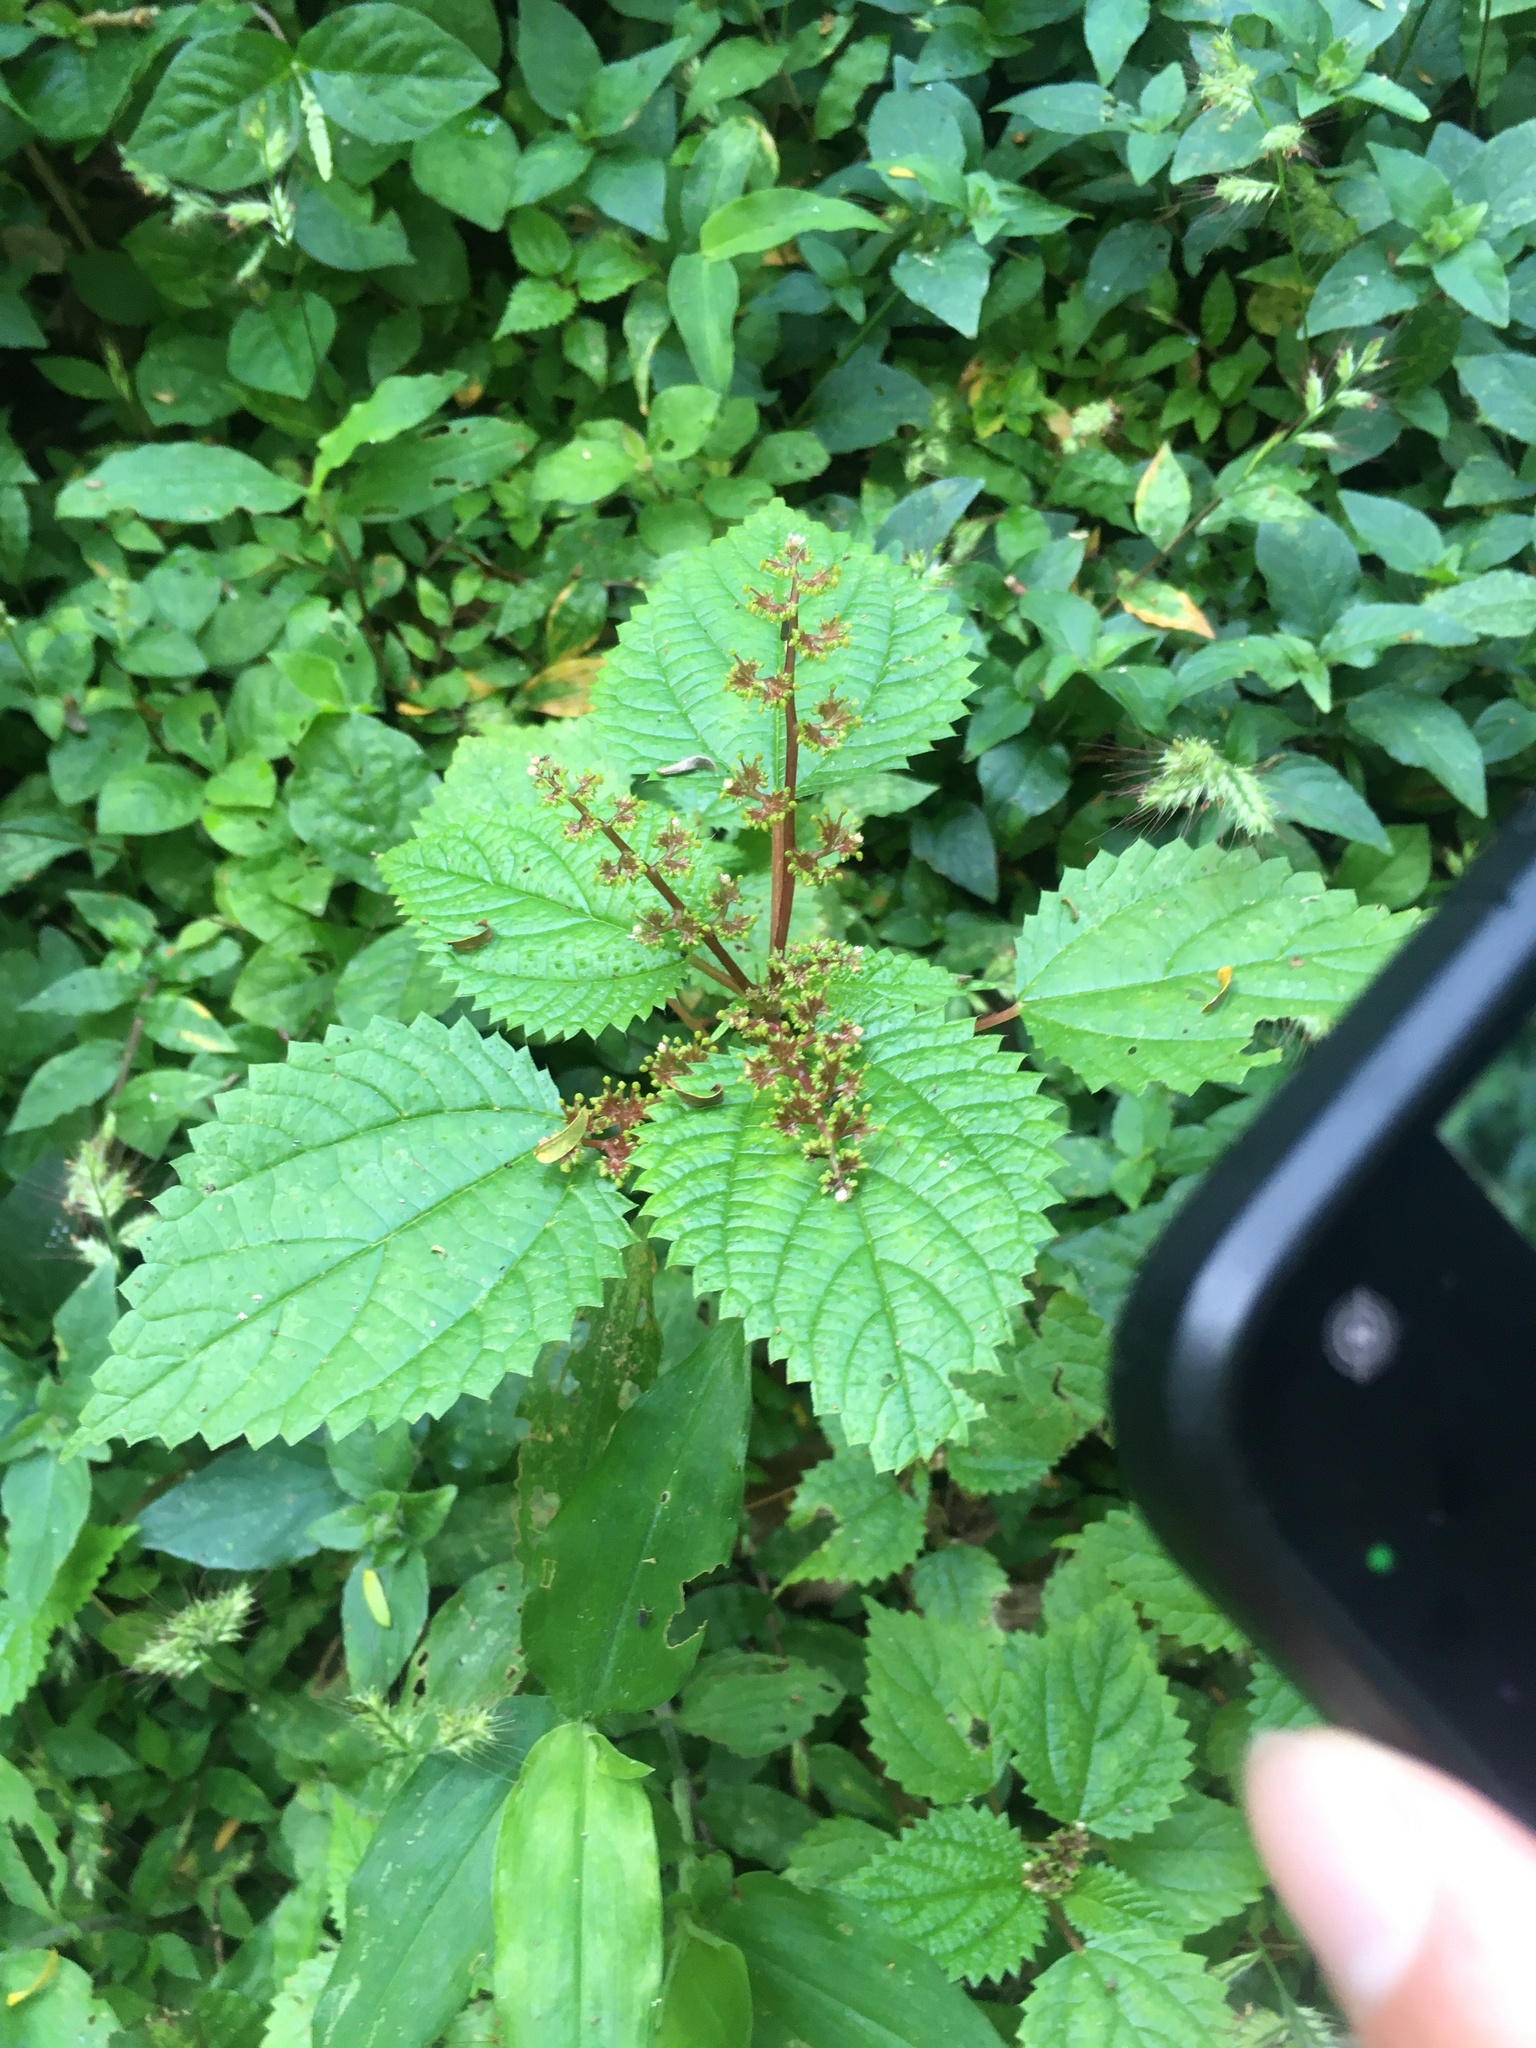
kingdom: Plantae
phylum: Tracheophyta
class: Magnoliopsida
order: Rosales
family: Urticaceae
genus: Laportea
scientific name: Laportea aestuans
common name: West indian woodnettle
